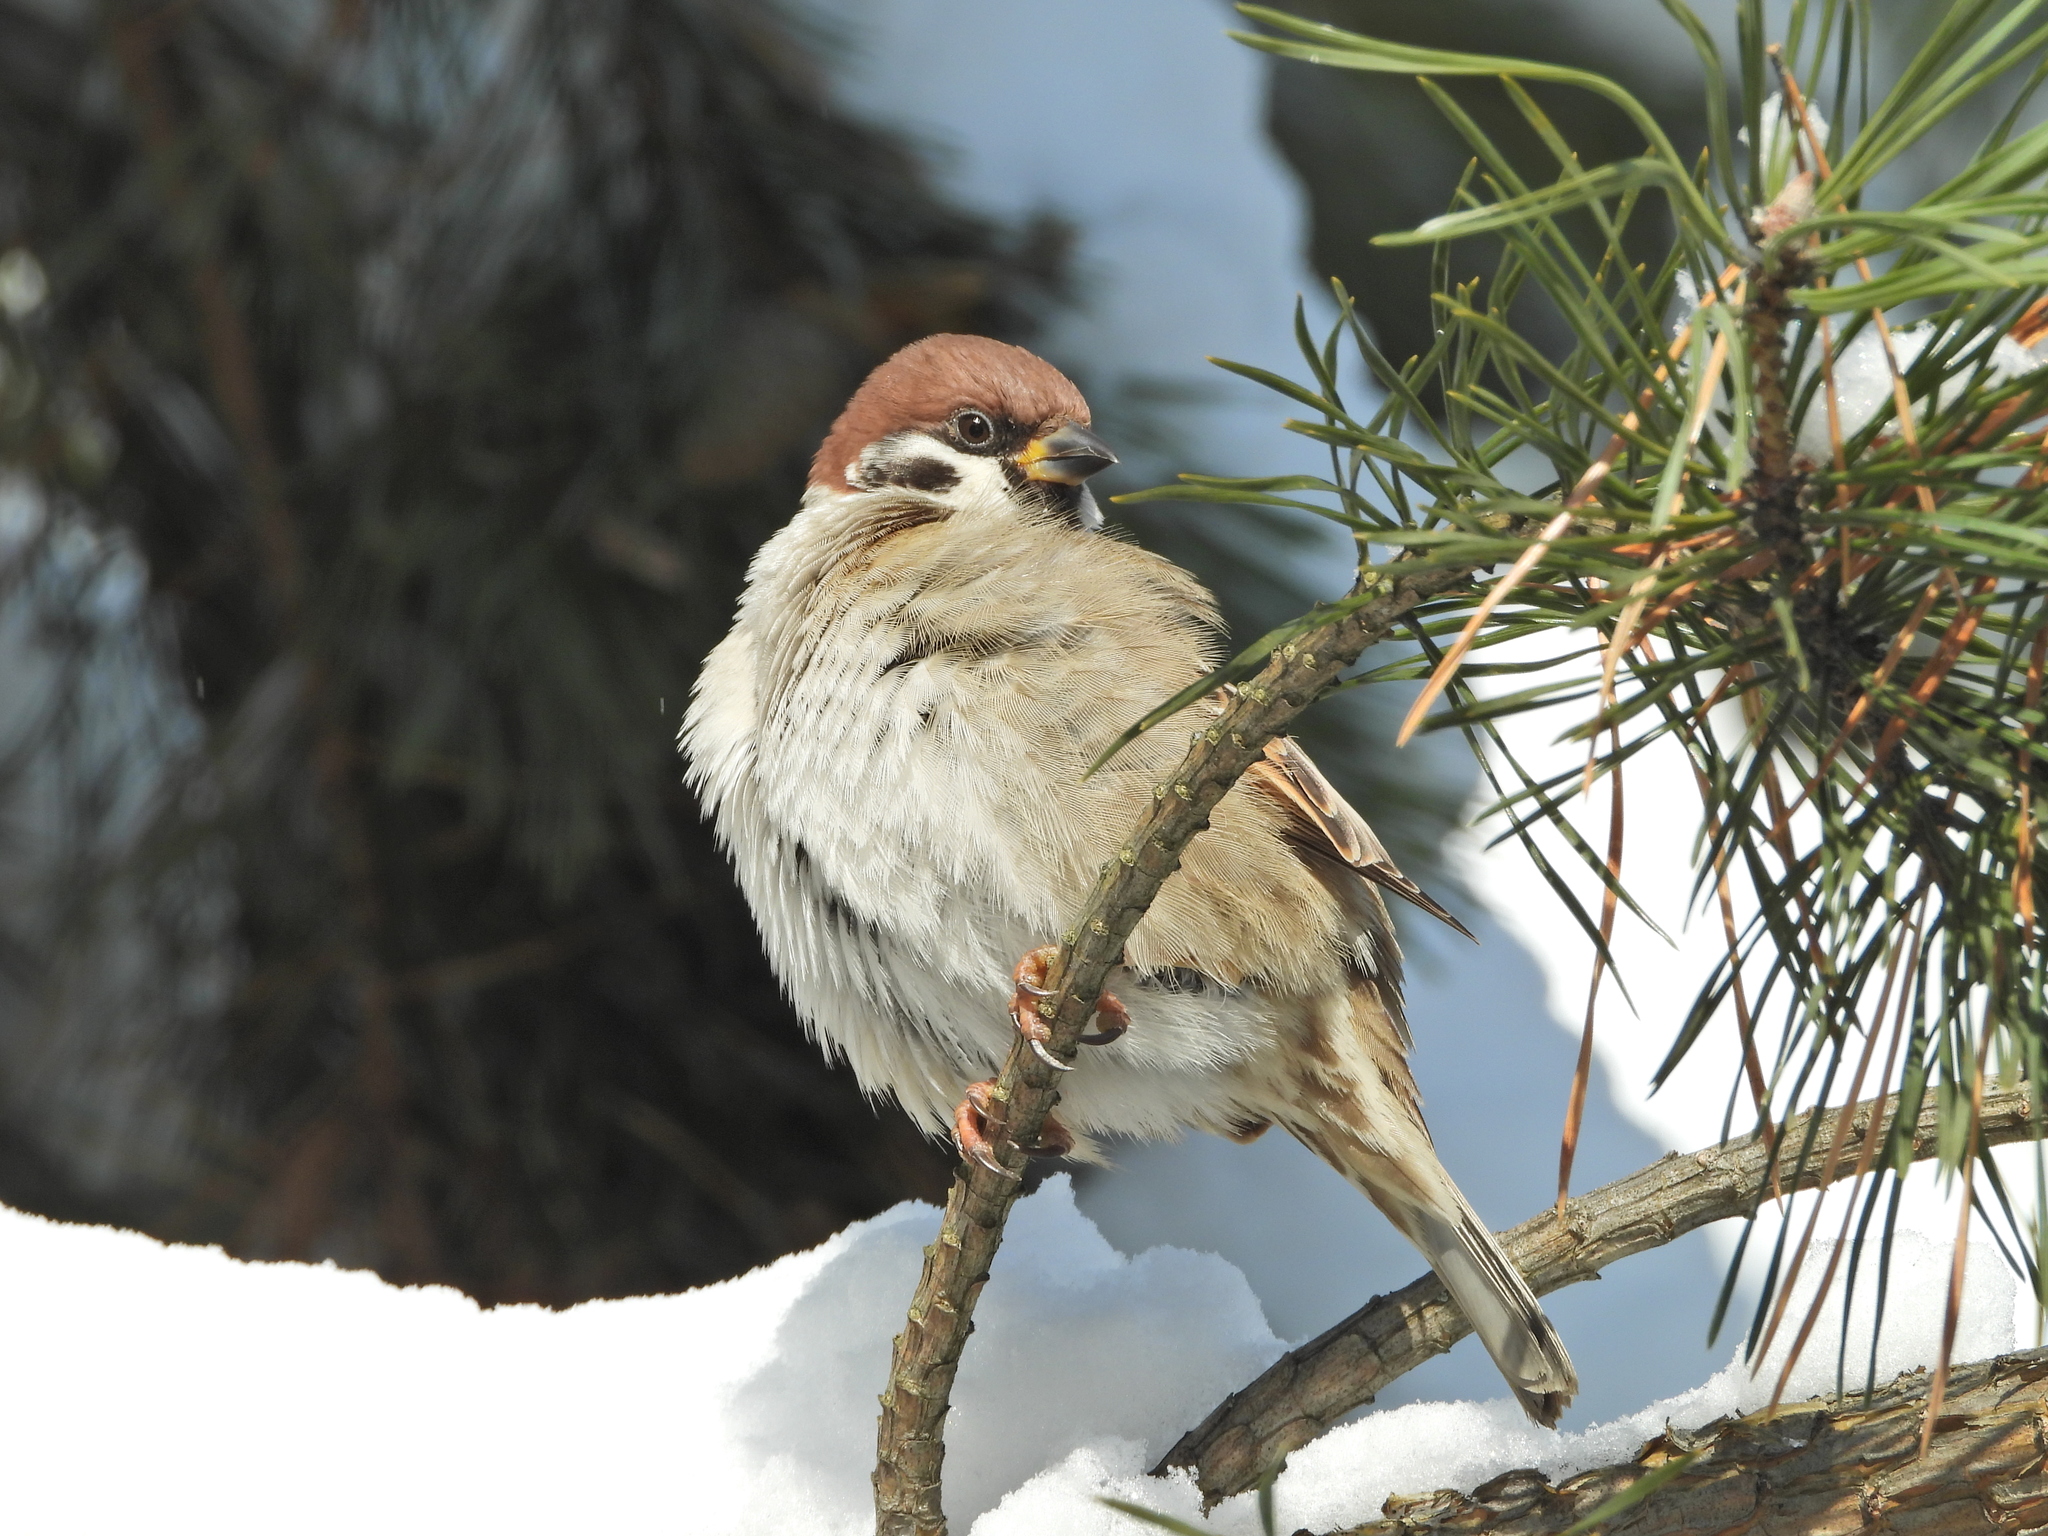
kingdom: Animalia
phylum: Chordata
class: Aves
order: Passeriformes
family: Passeridae
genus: Passer
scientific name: Passer montanus
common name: Eurasian tree sparrow
